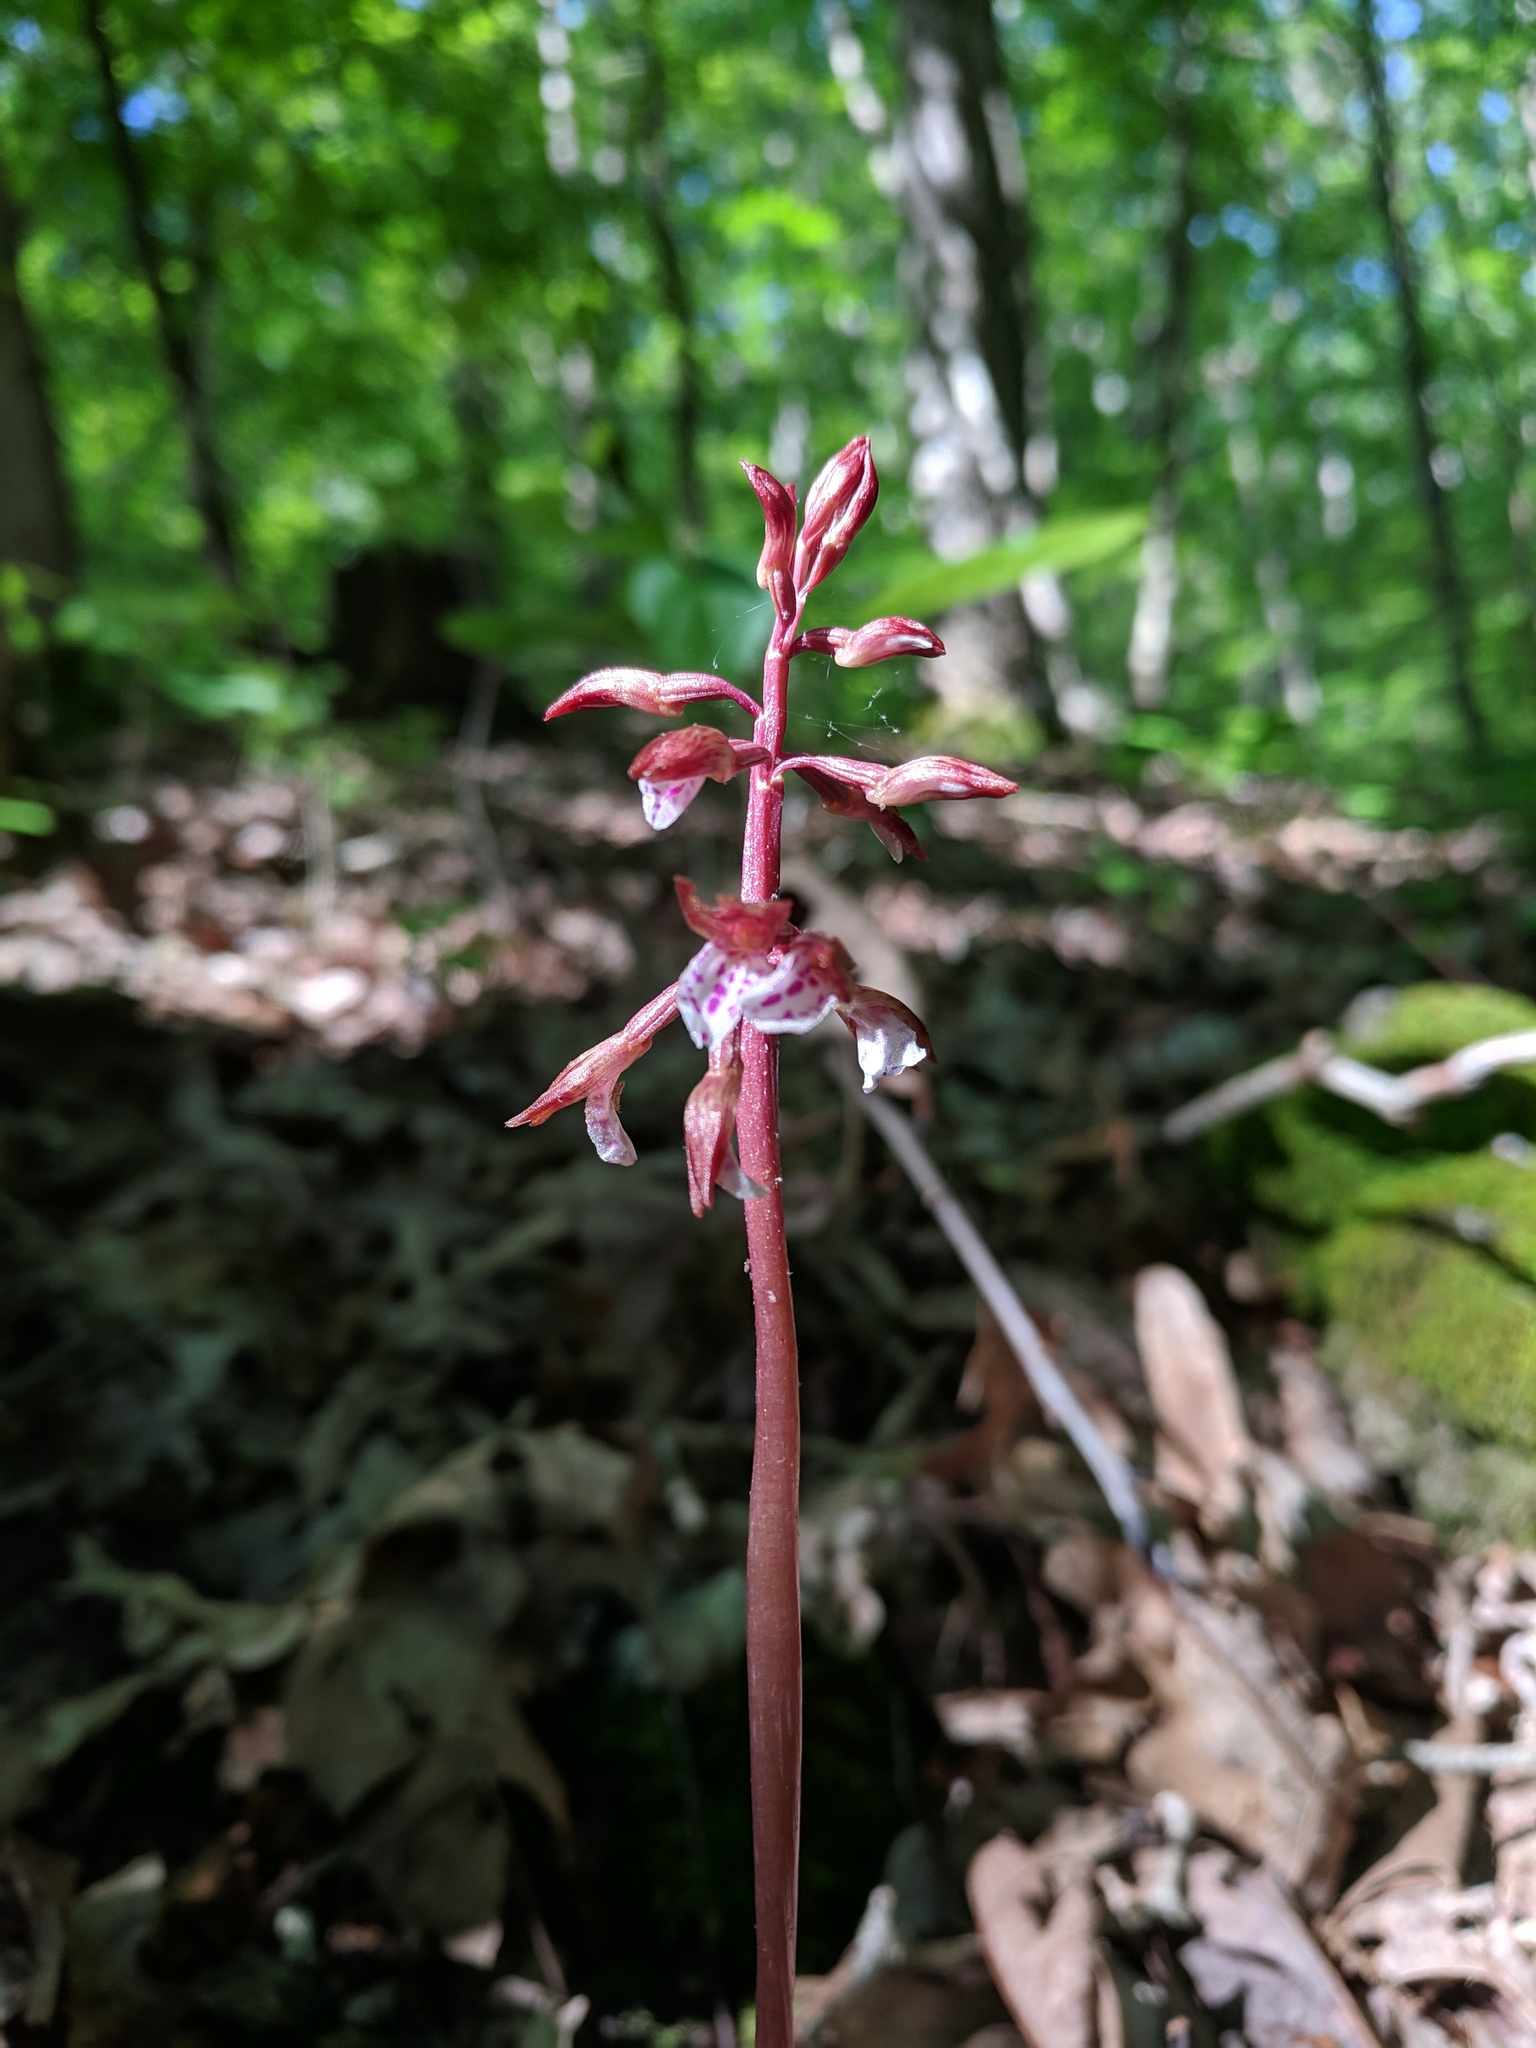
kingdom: Plantae
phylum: Tracheophyta
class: Liliopsida
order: Asparagales
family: Orchidaceae
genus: Corallorhiza
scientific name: Corallorhiza wisteriana
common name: Spring coralroot
